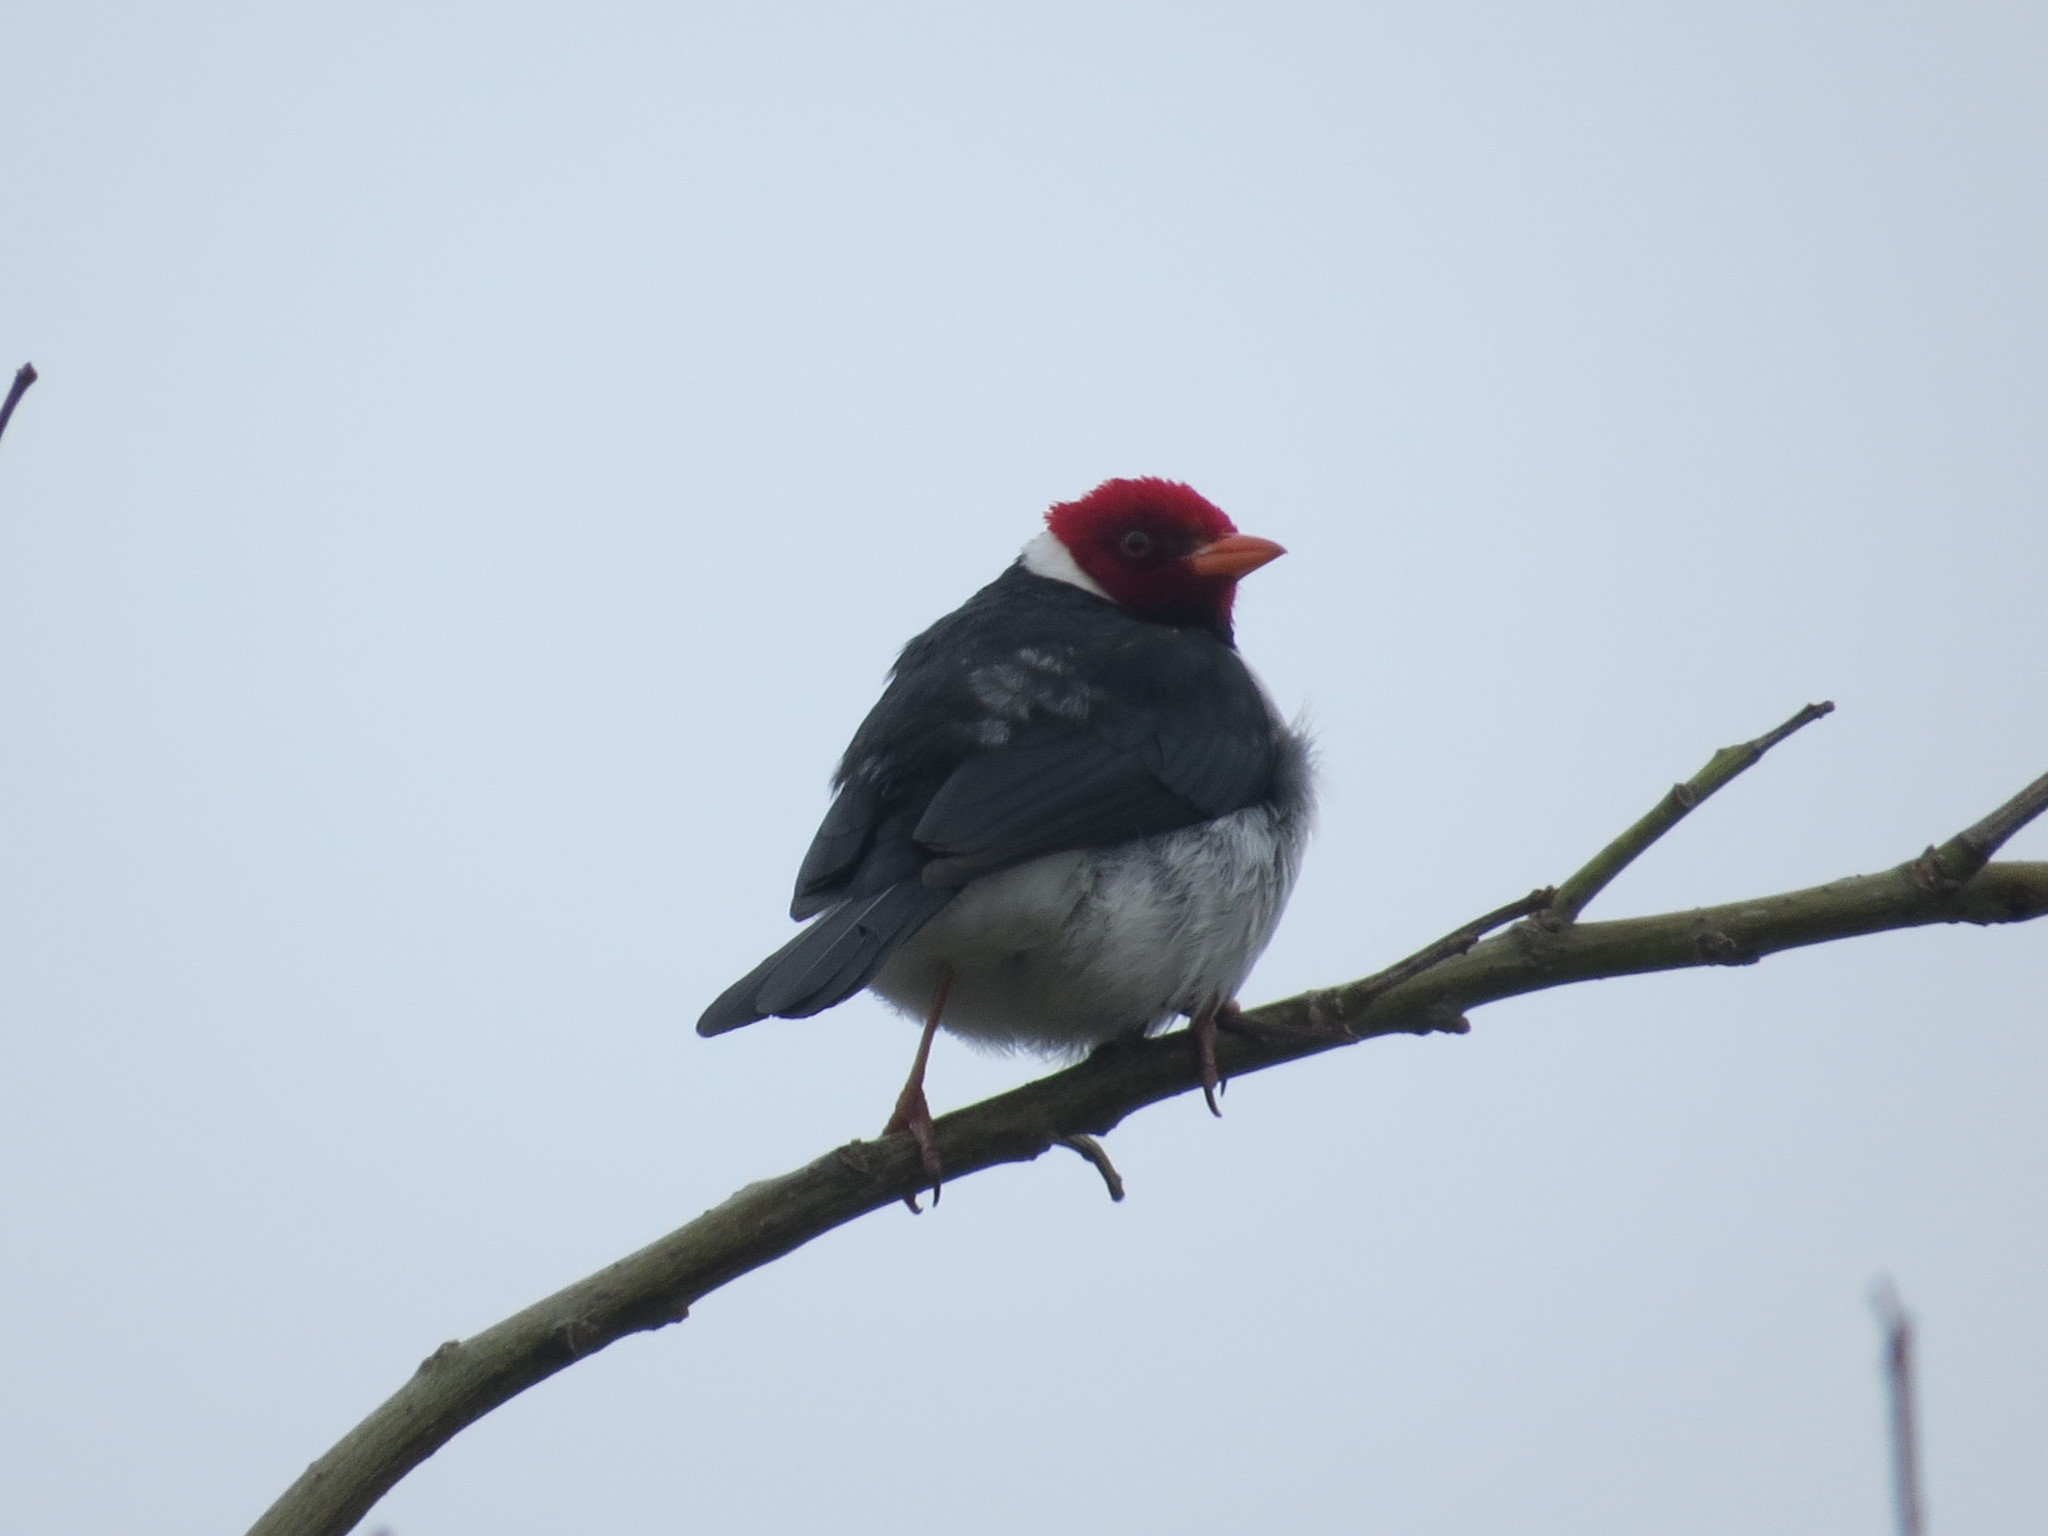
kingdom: Animalia
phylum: Chordata
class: Aves
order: Passeriformes
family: Thraupidae
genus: Paroaria
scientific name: Paroaria capitata
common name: Yellow-billed cardinal
